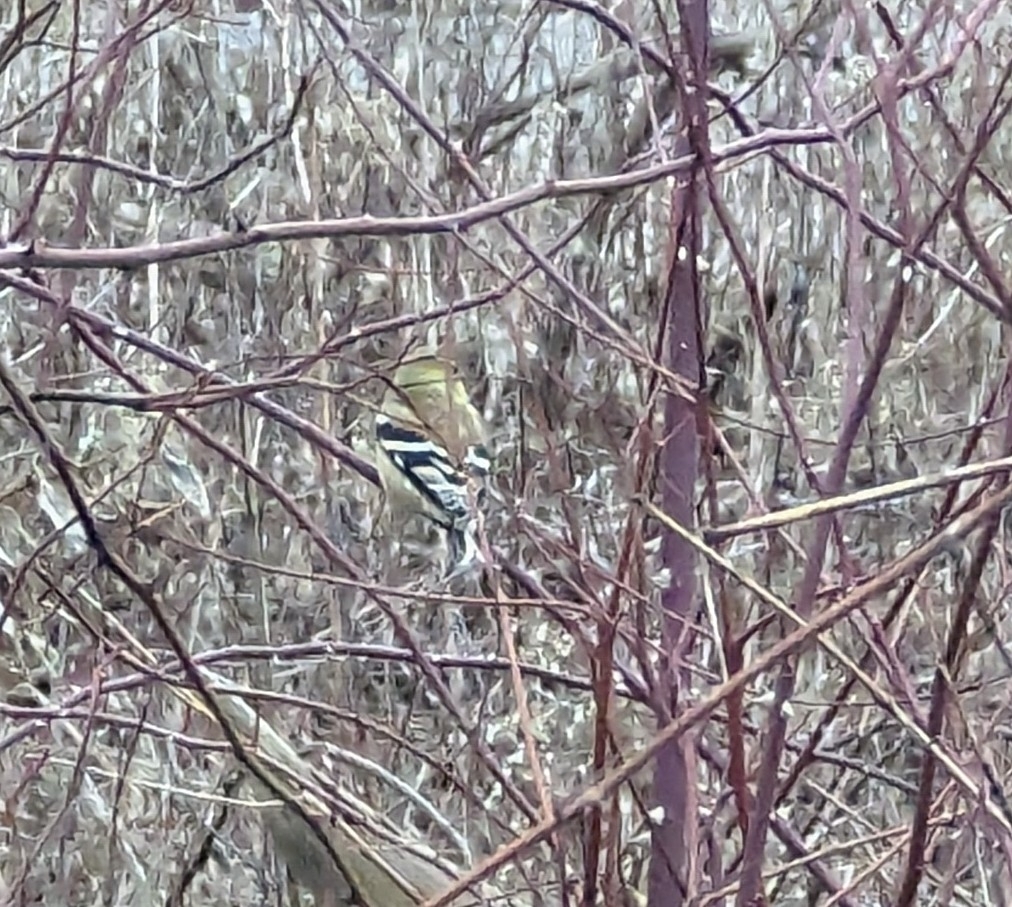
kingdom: Animalia
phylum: Chordata
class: Aves
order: Passeriformes
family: Fringillidae
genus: Spinus
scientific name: Spinus tristis
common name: American goldfinch
